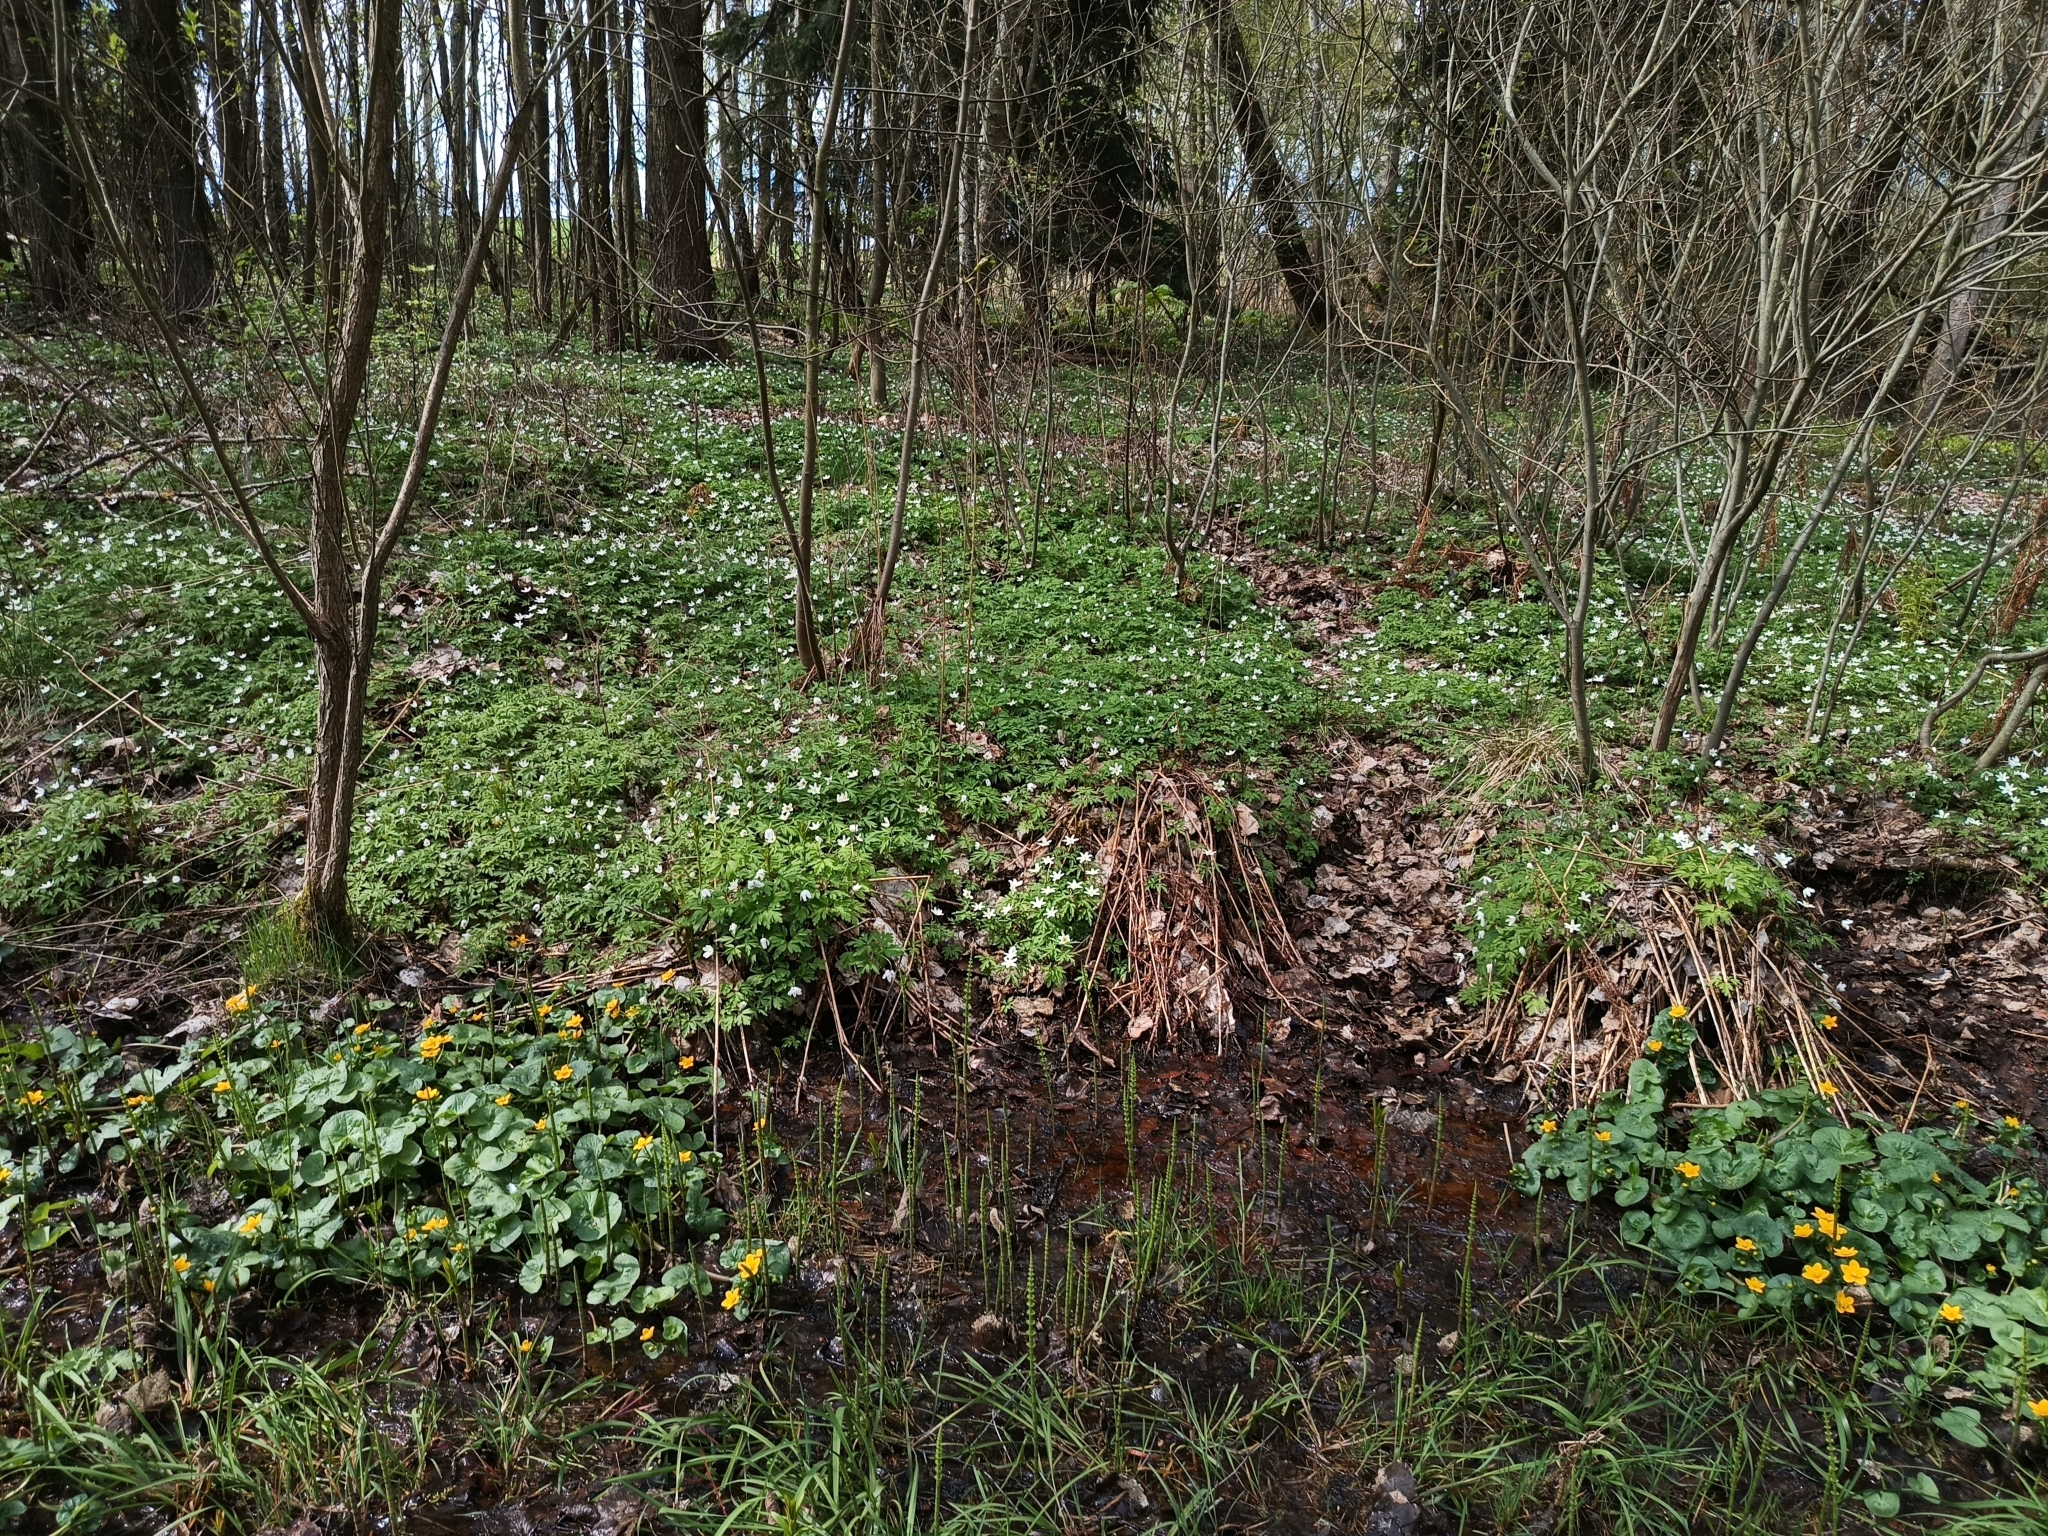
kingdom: Plantae
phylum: Tracheophyta
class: Magnoliopsida
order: Ranunculales
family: Ranunculaceae
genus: Anemone
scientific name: Anemone nemorosa
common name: Wood anemone
